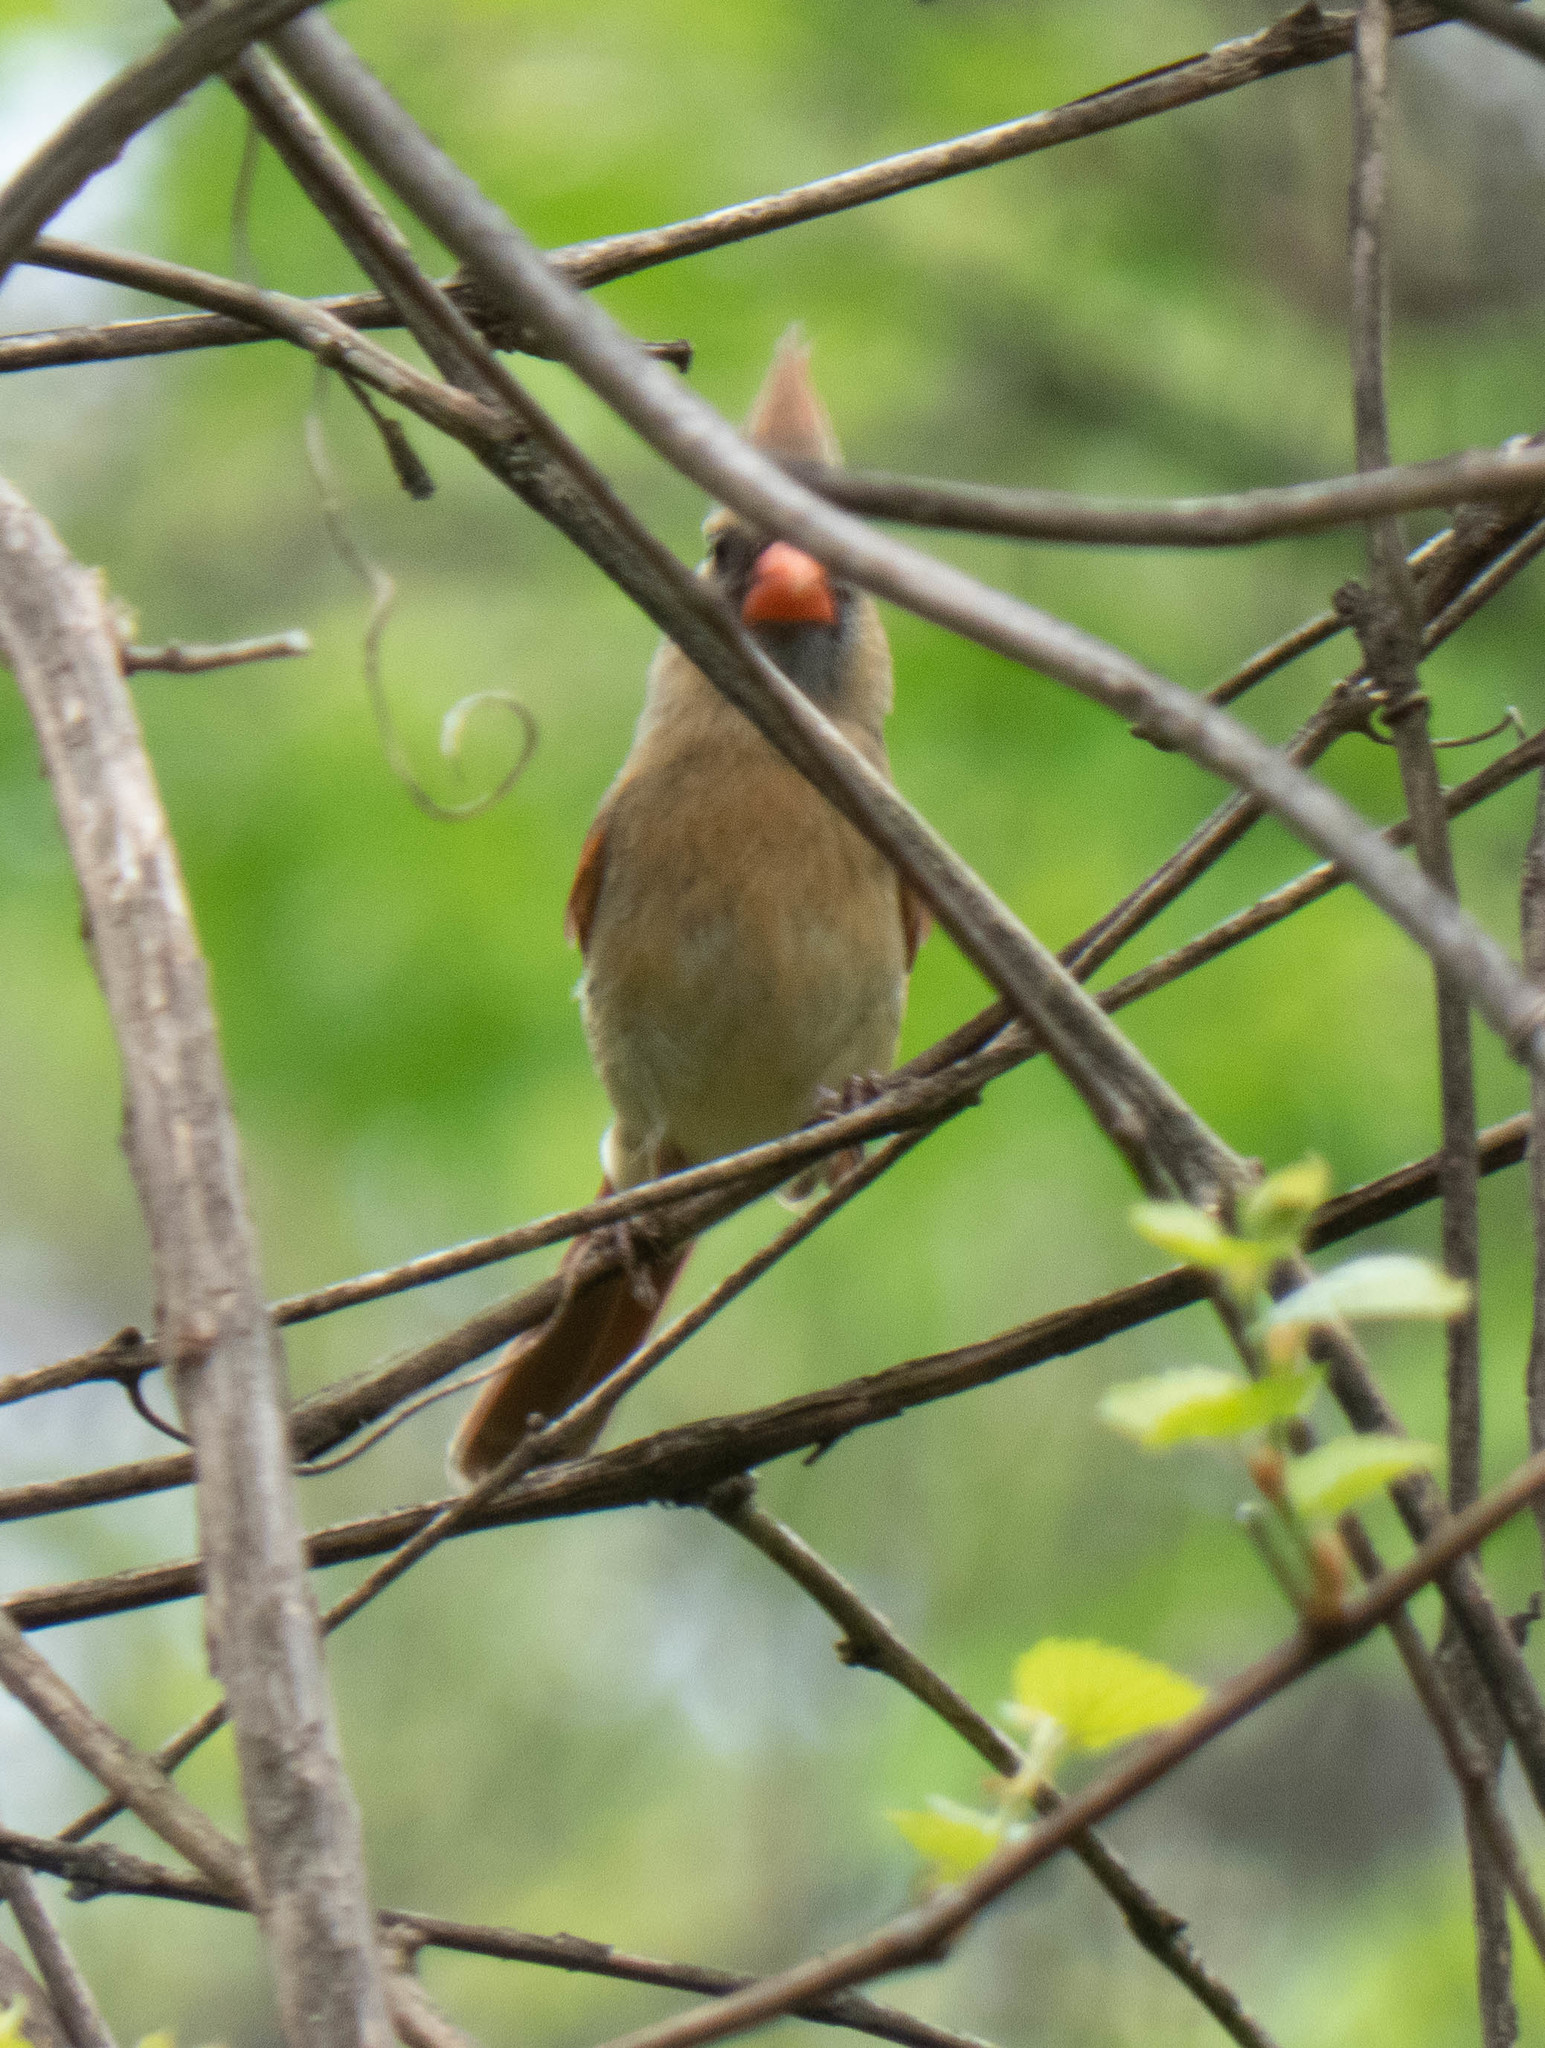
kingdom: Animalia
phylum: Chordata
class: Aves
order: Passeriformes
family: Cardinalidae
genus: Cardinalis
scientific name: Cardinalis cardinalis
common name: Northern cardinal
